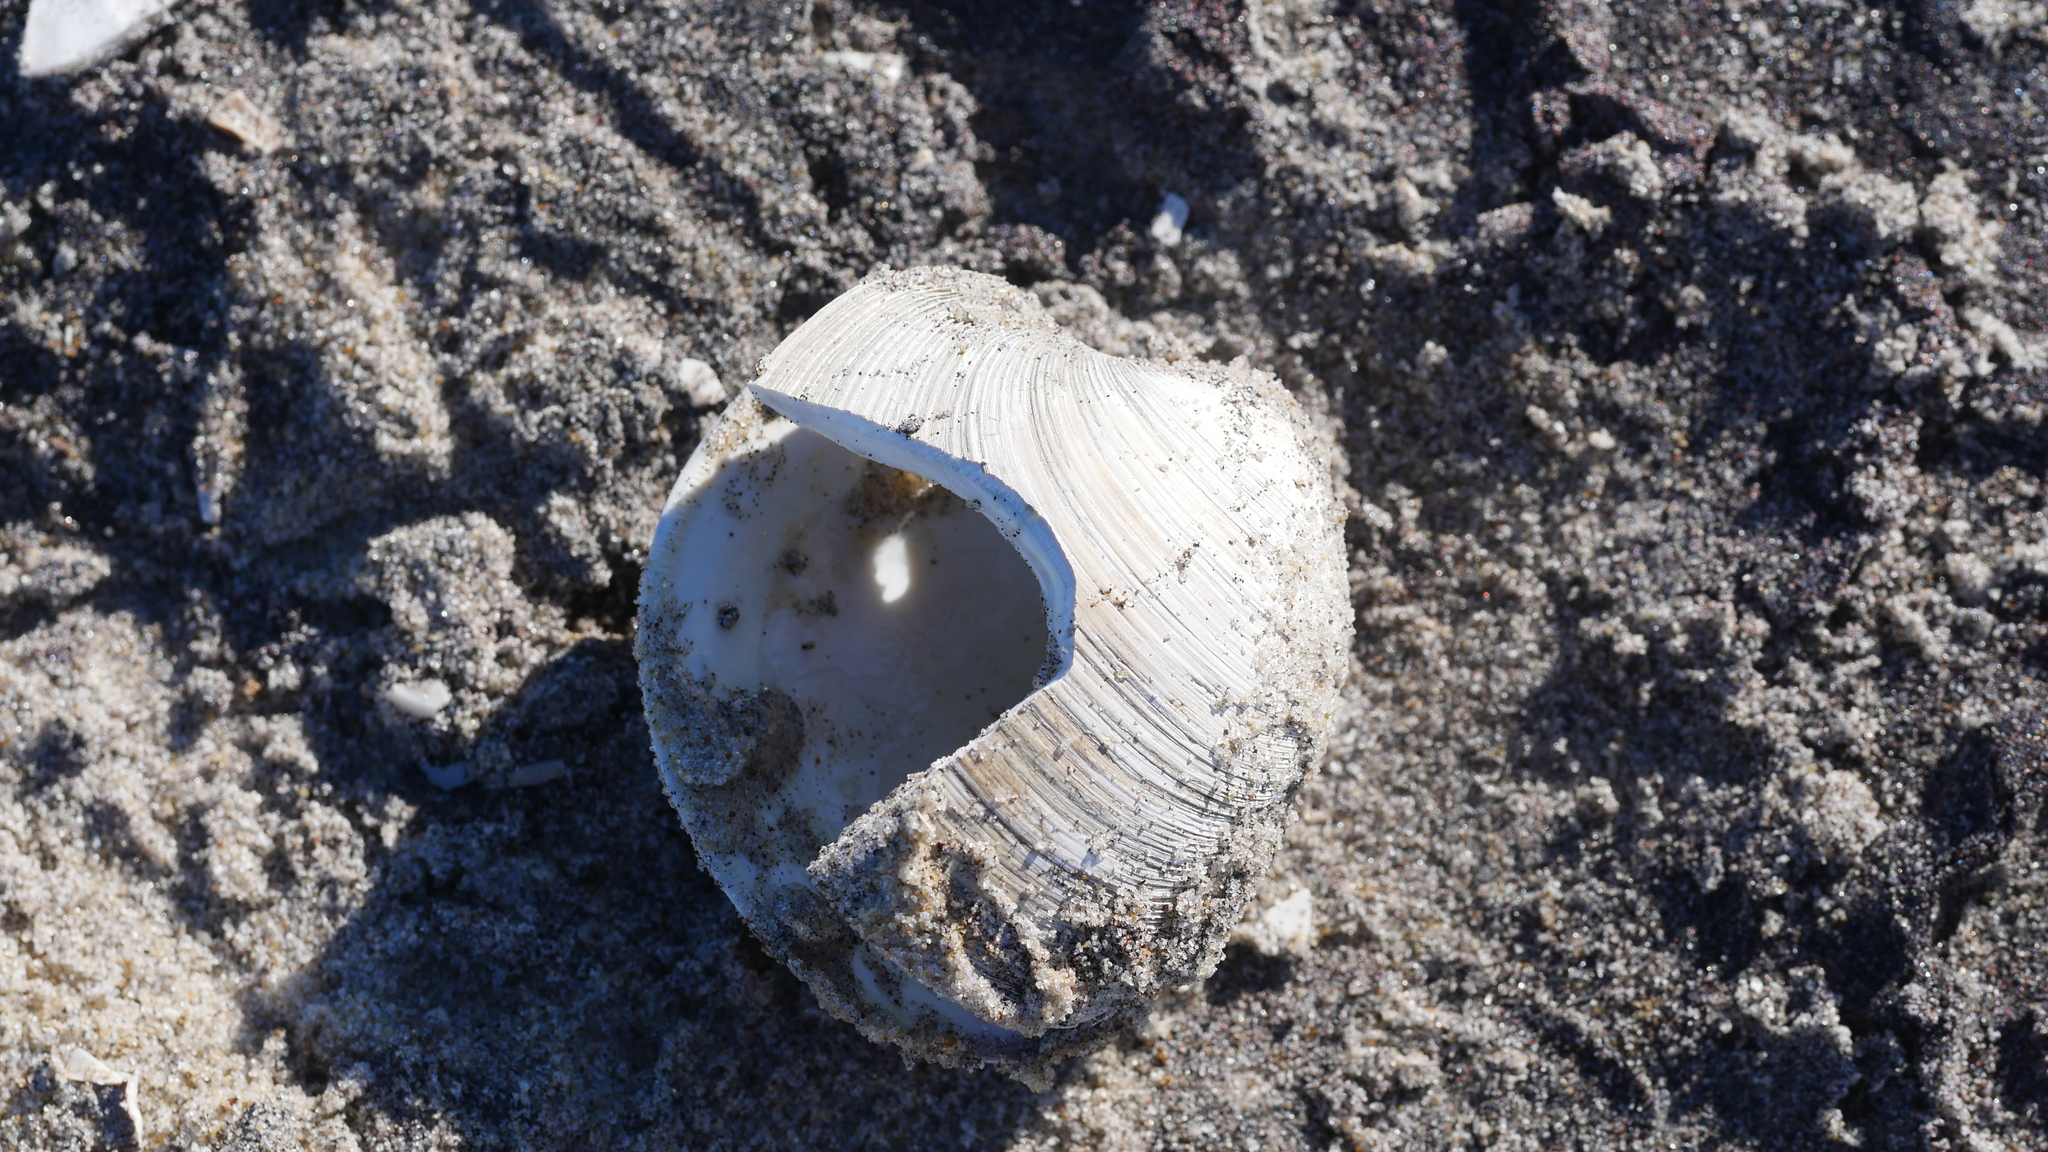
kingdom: Animalia
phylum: Mollusca
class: Bivalvia
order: Venerida
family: Veneridae
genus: Mercenaria
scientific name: Mercenaria mercenaria
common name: American hard-shelled clam
